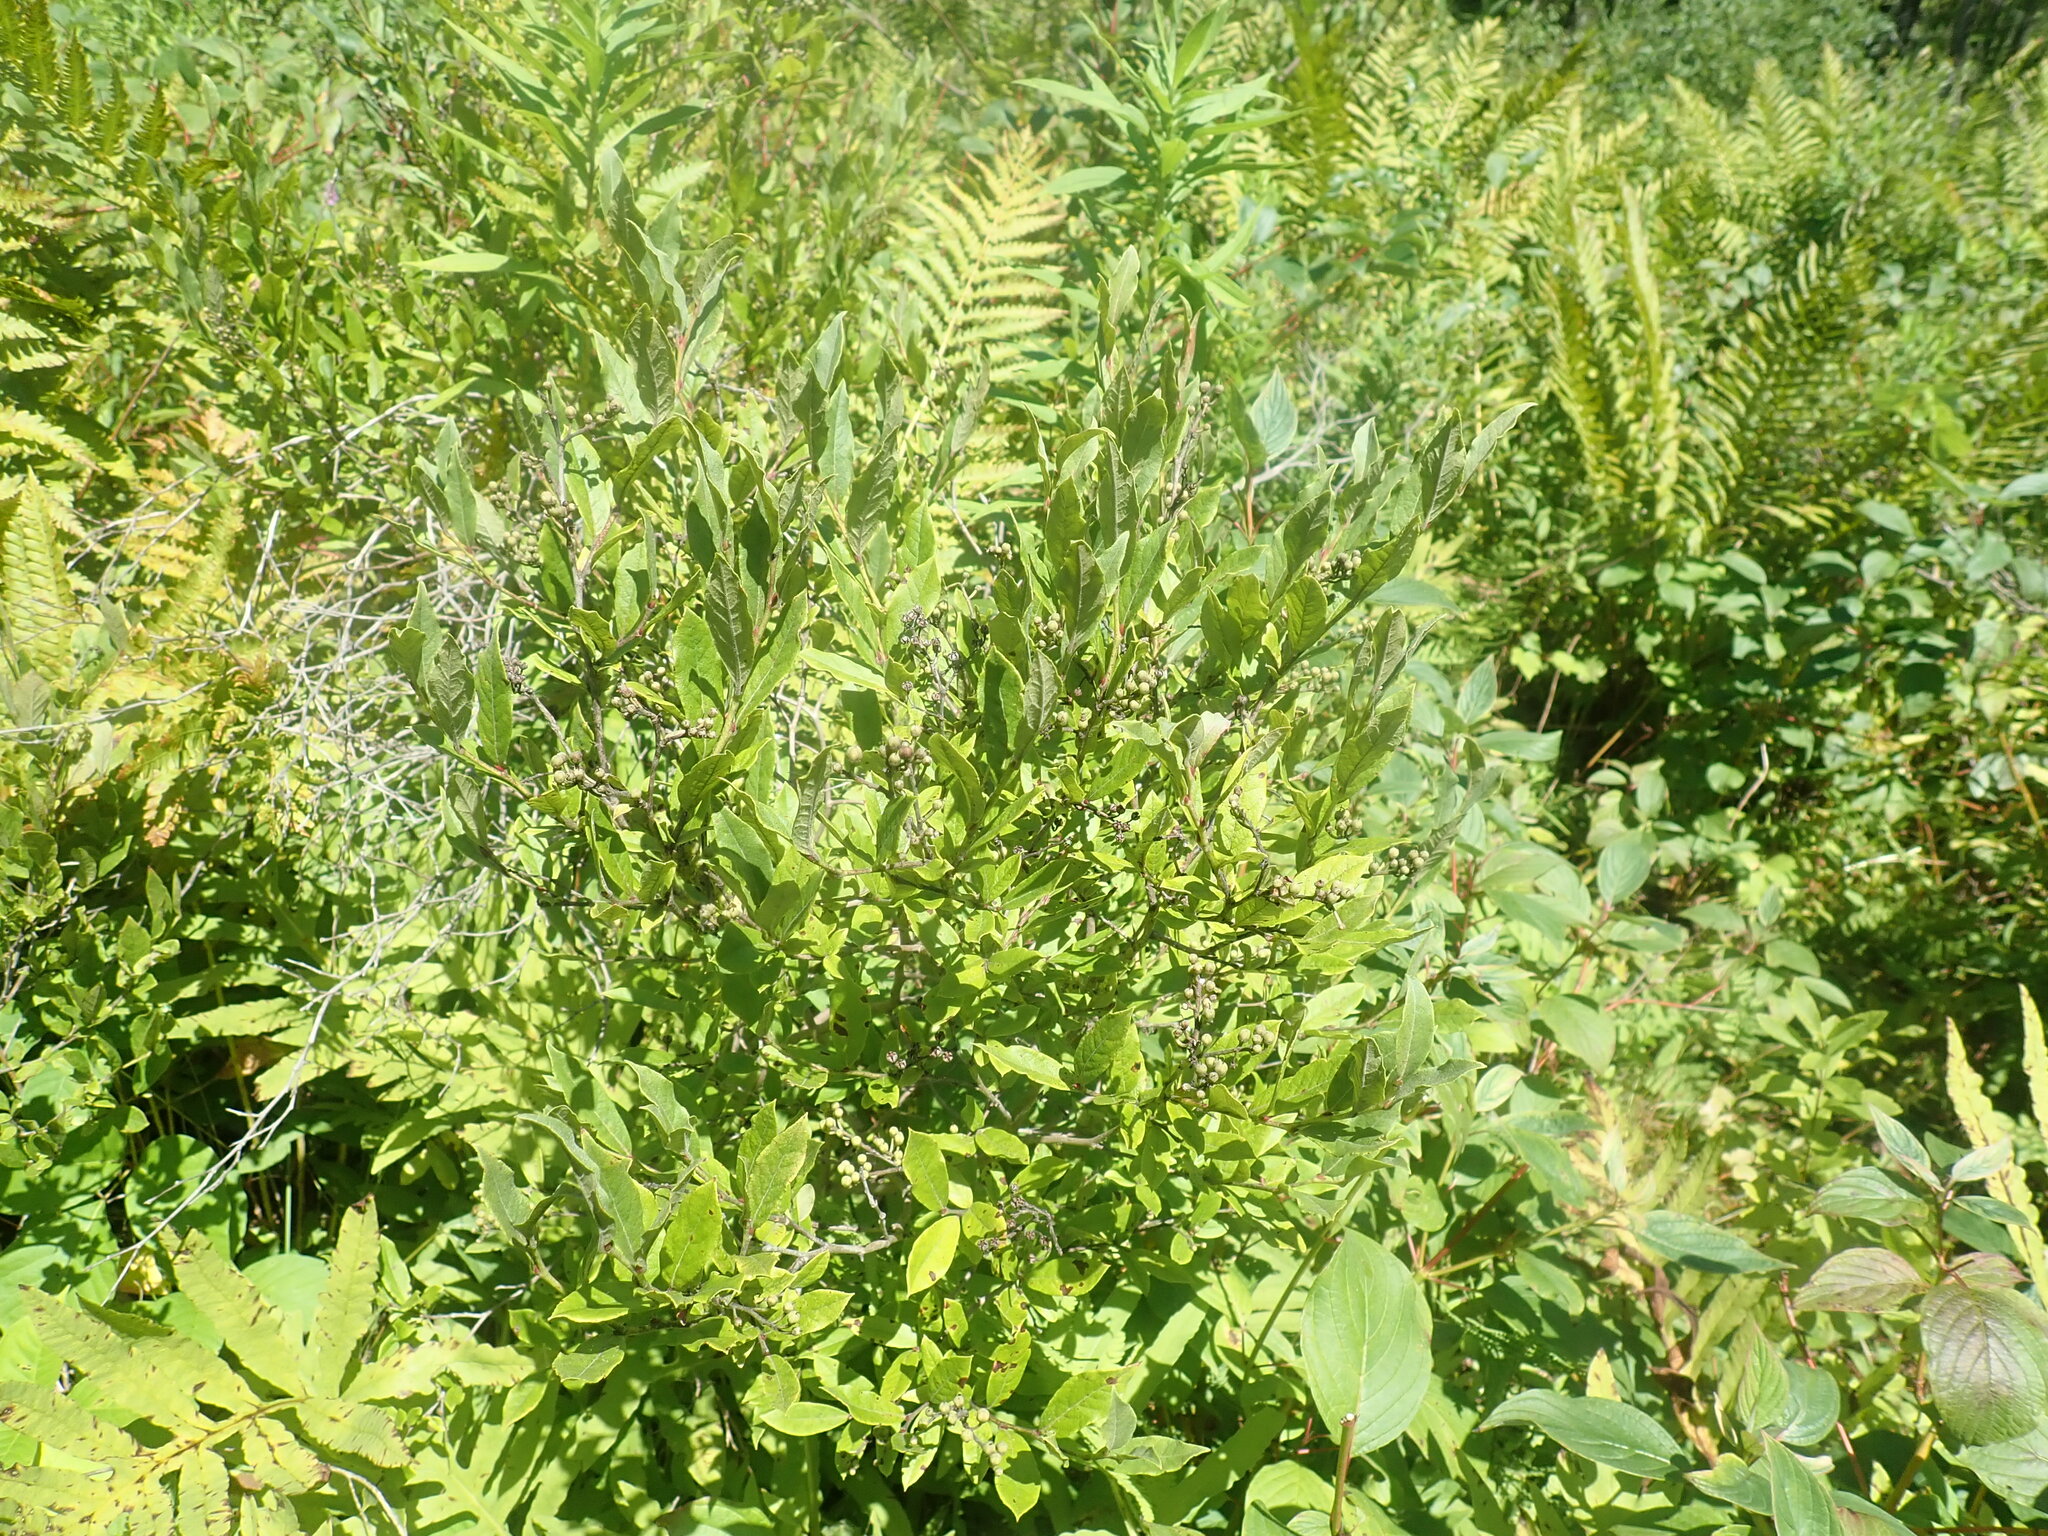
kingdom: Plantae
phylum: Tracheophyta
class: Magnoliopsida
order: Ericales
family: Ericaceae
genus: Lyonia
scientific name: Lyonia ligustrina
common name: Maleberry
